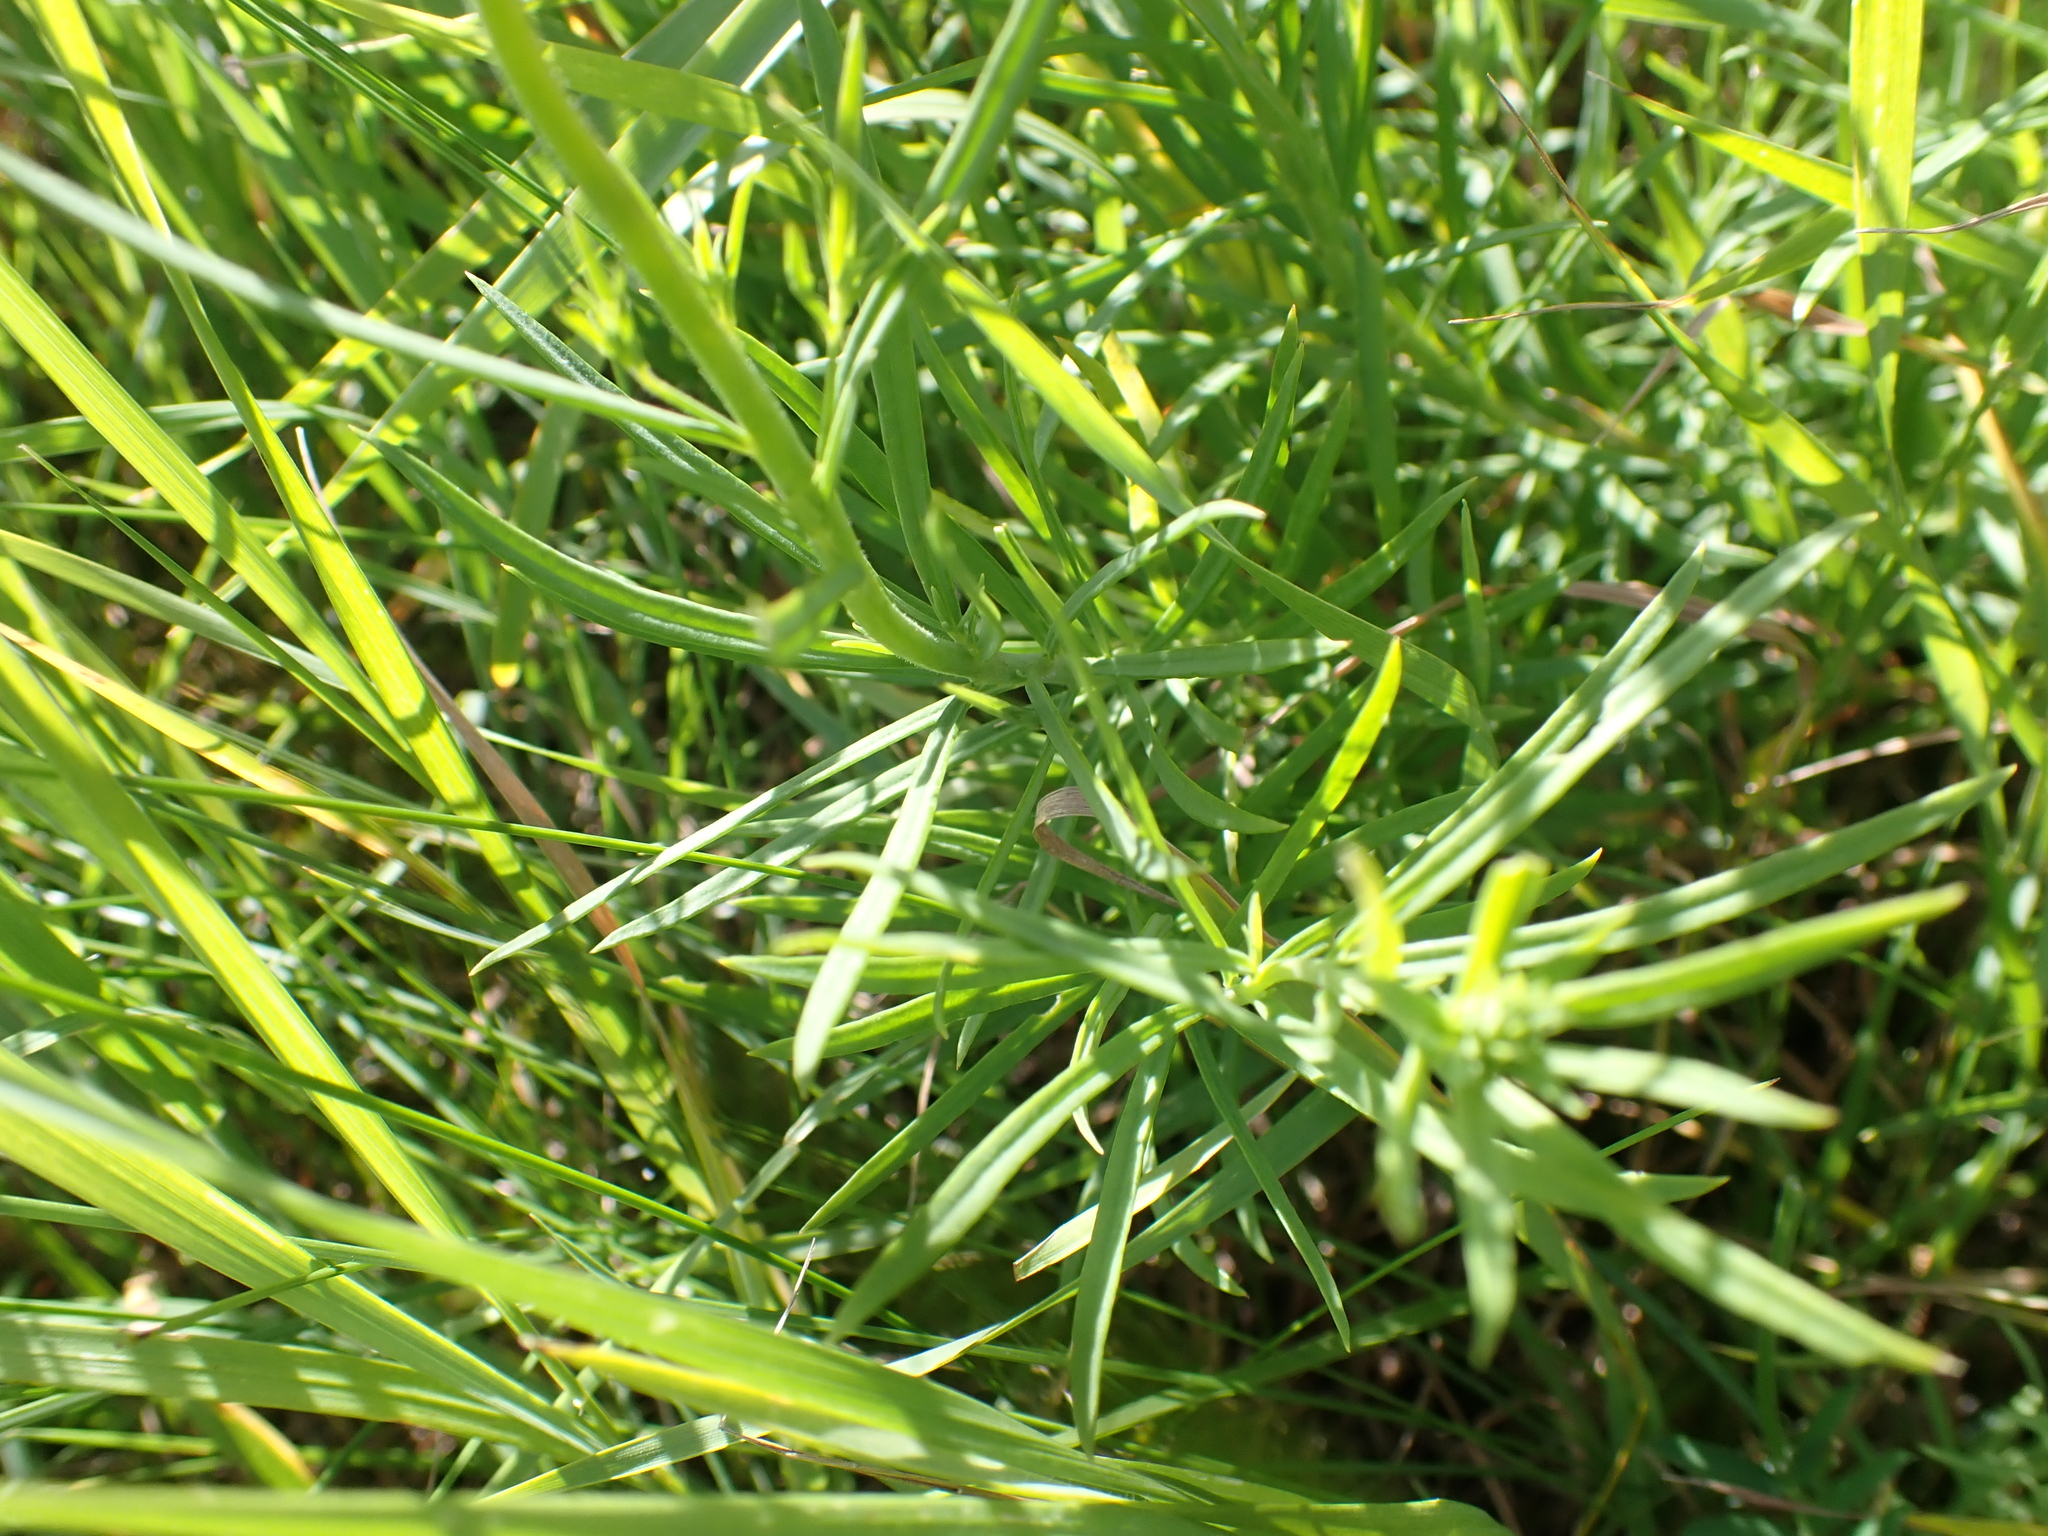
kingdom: Plantae
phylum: Tracheophyta
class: Magnoliopsida
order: Lamiales
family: Plantaginaceae
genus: Linaria
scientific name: Linaria vulgaris
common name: Butter and eggs
